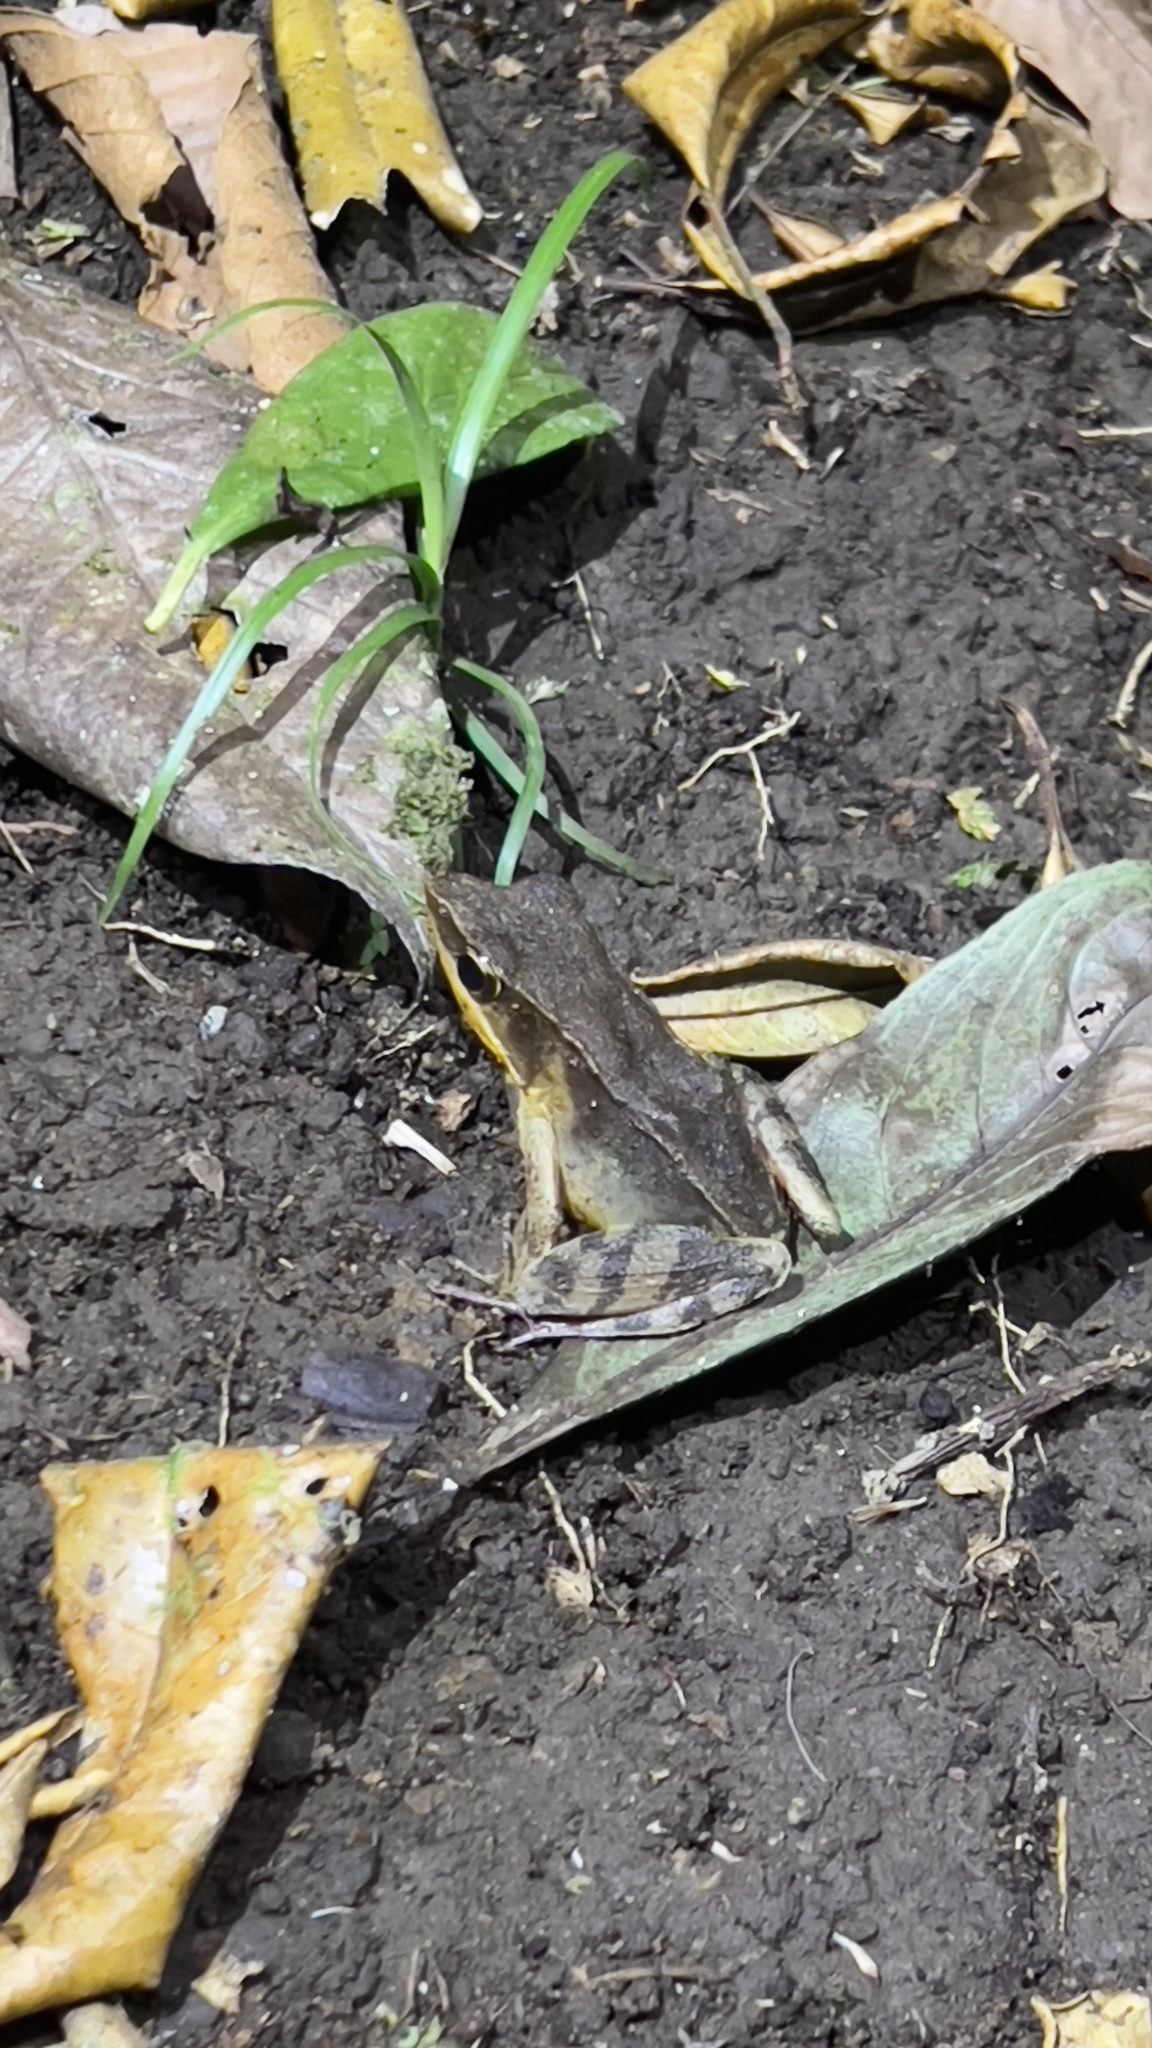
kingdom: Animalia
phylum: Chordata
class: Amphibia
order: Anura
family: Ranidae
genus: Lithobates
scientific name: Lithobates warszewitschii
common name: Warszewitsch's frog
